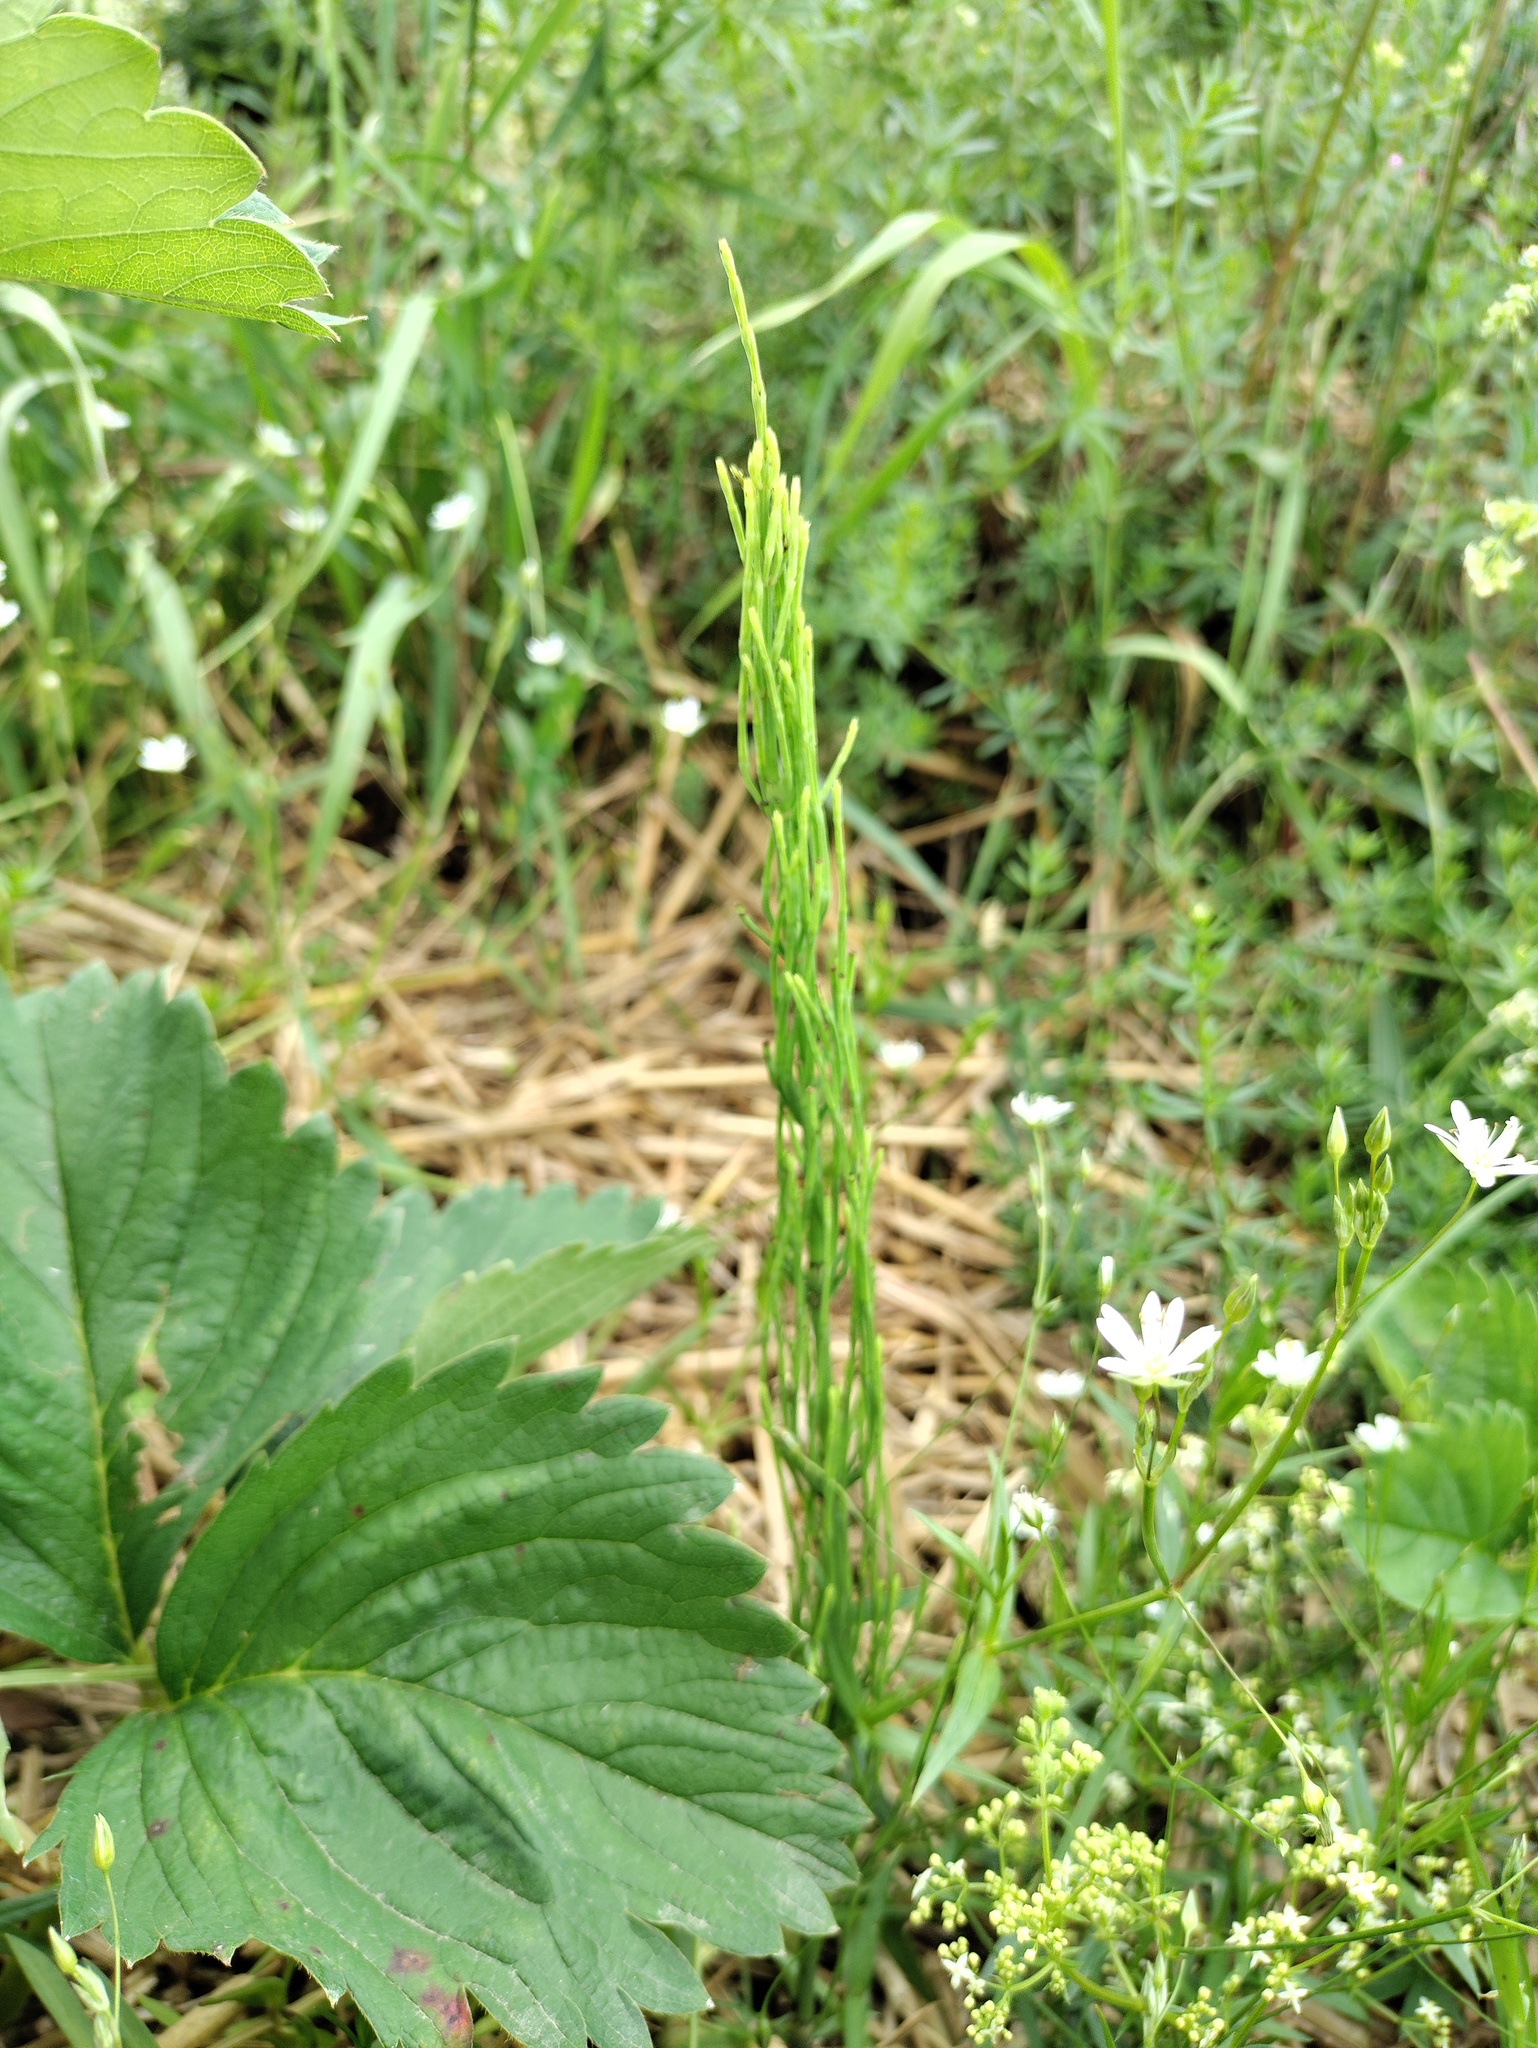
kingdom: Plantae
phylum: Tracheophyta
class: Polypodiopsida
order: Equisetales
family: Equisetaceae
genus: Equisetum
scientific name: Equisetum arvense
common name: Field horsetail
